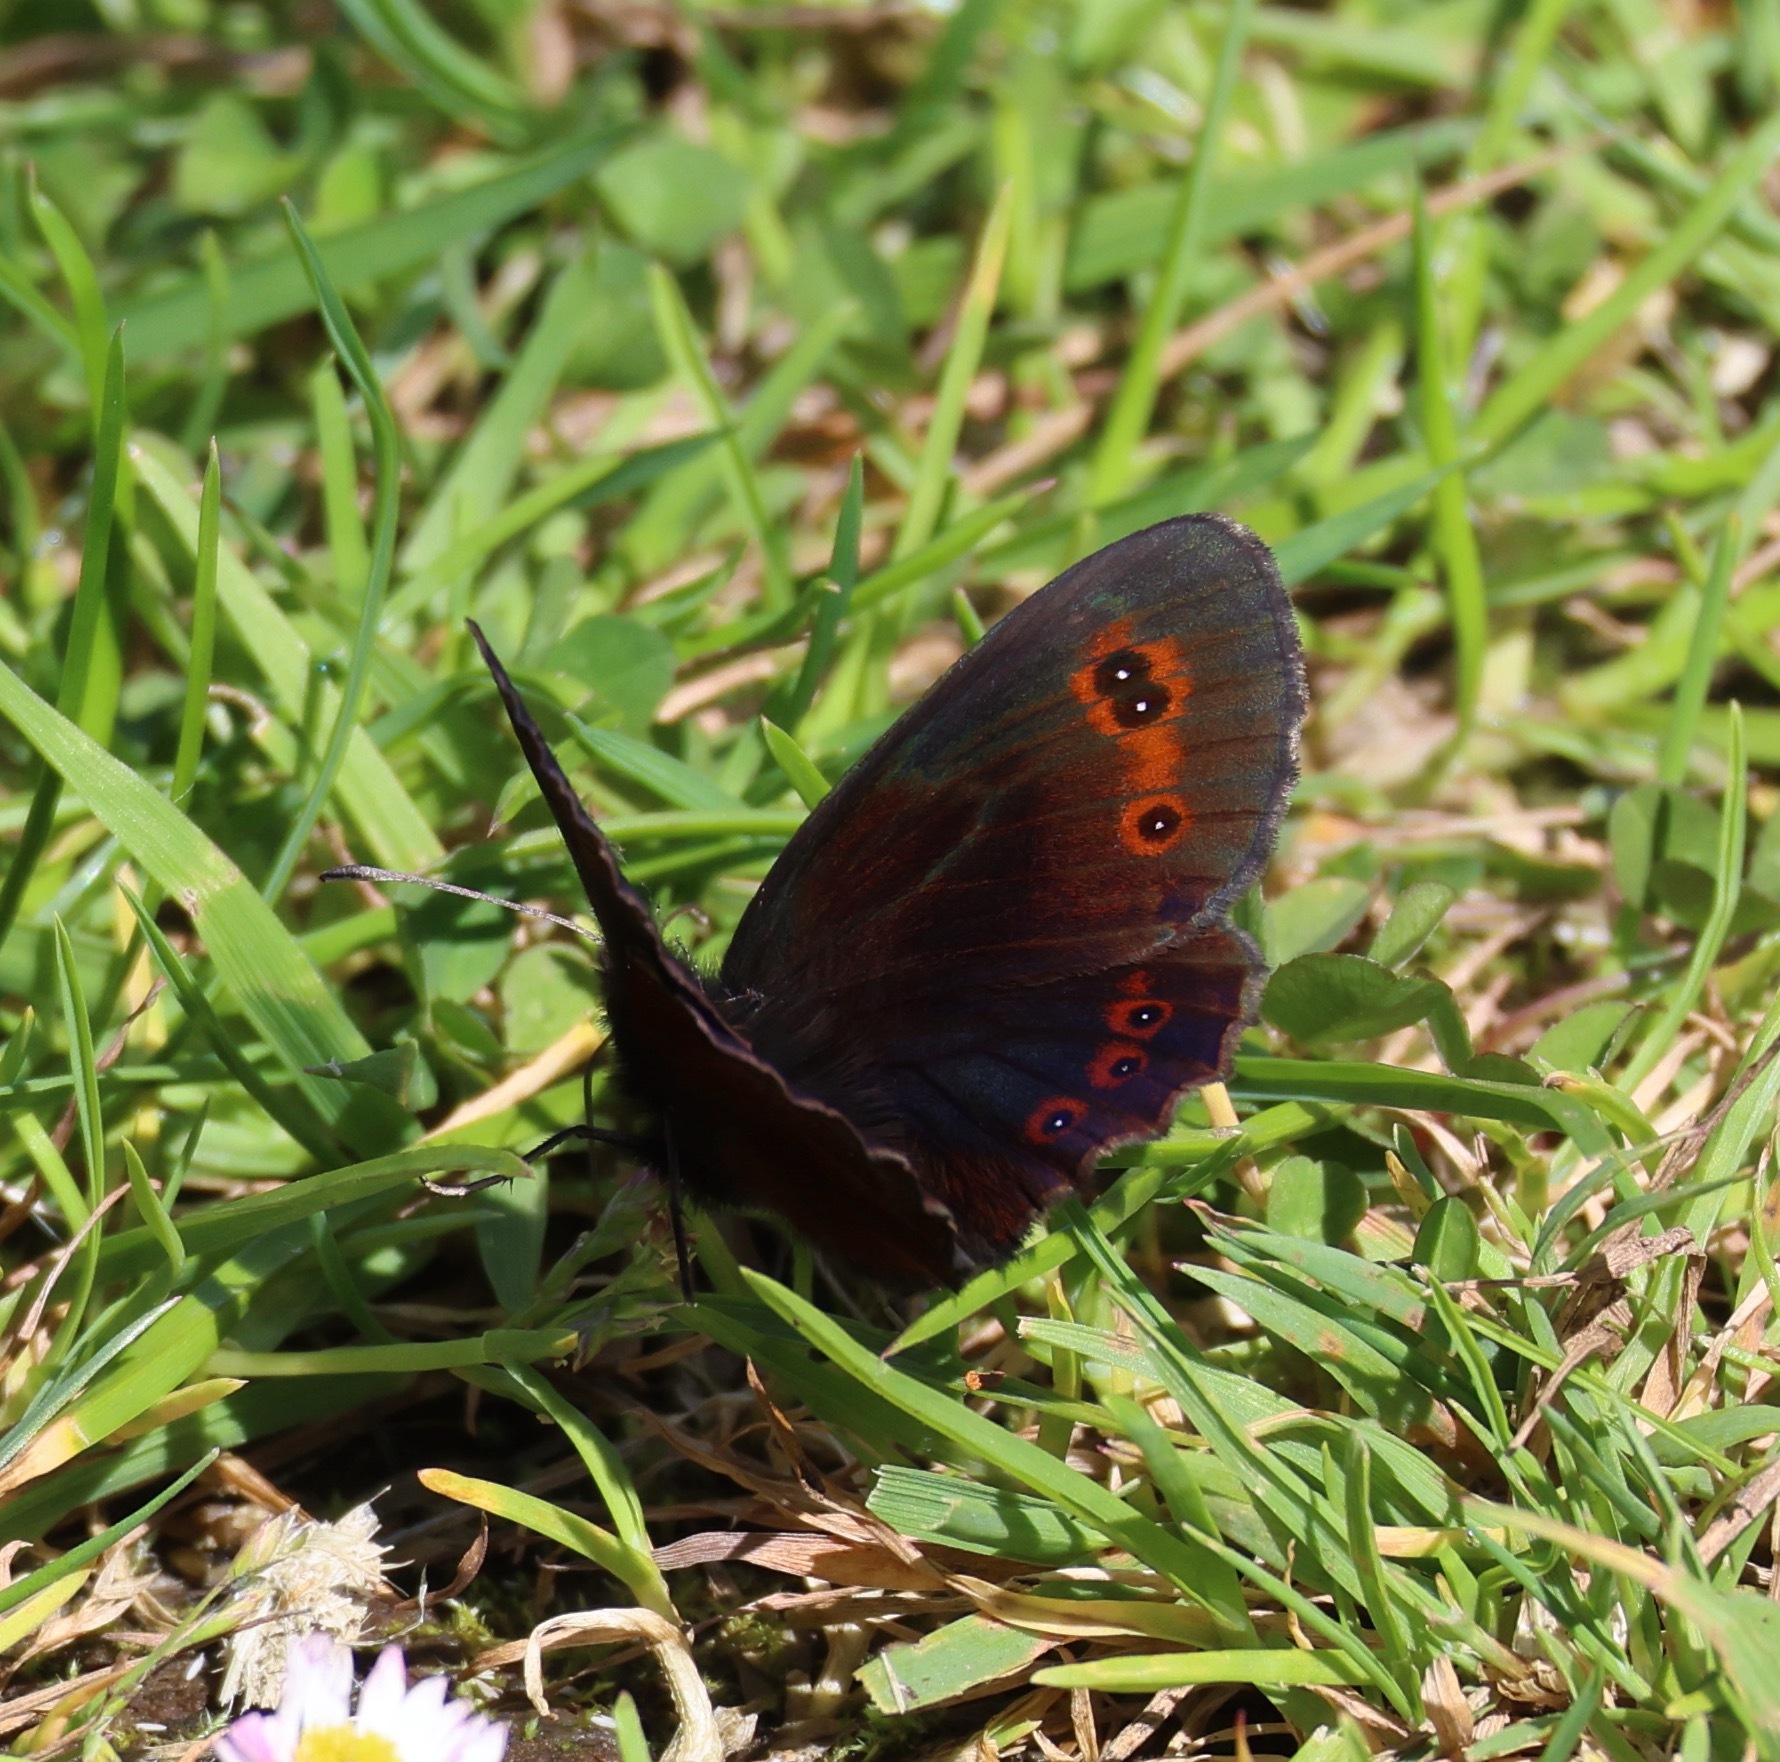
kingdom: Animalia
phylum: Arthropoda
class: Insecta
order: Lepidoptera
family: Nymphalidae
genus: Erebia
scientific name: Erebia aethiops
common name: Scotch argus
